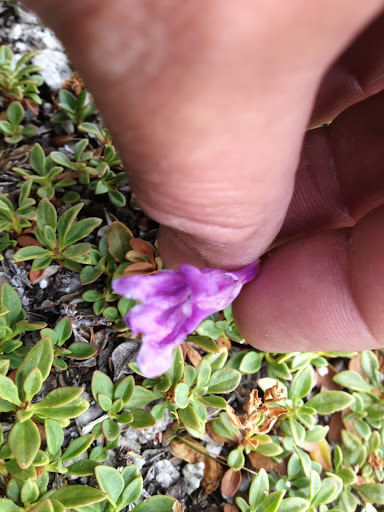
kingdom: Plantae
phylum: Tracheophyta
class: Magnoliopsida
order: Lamiales
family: Plantaginaceae
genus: Penstemon
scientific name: Penstemon davidsonii
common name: Davidson's penstemon
